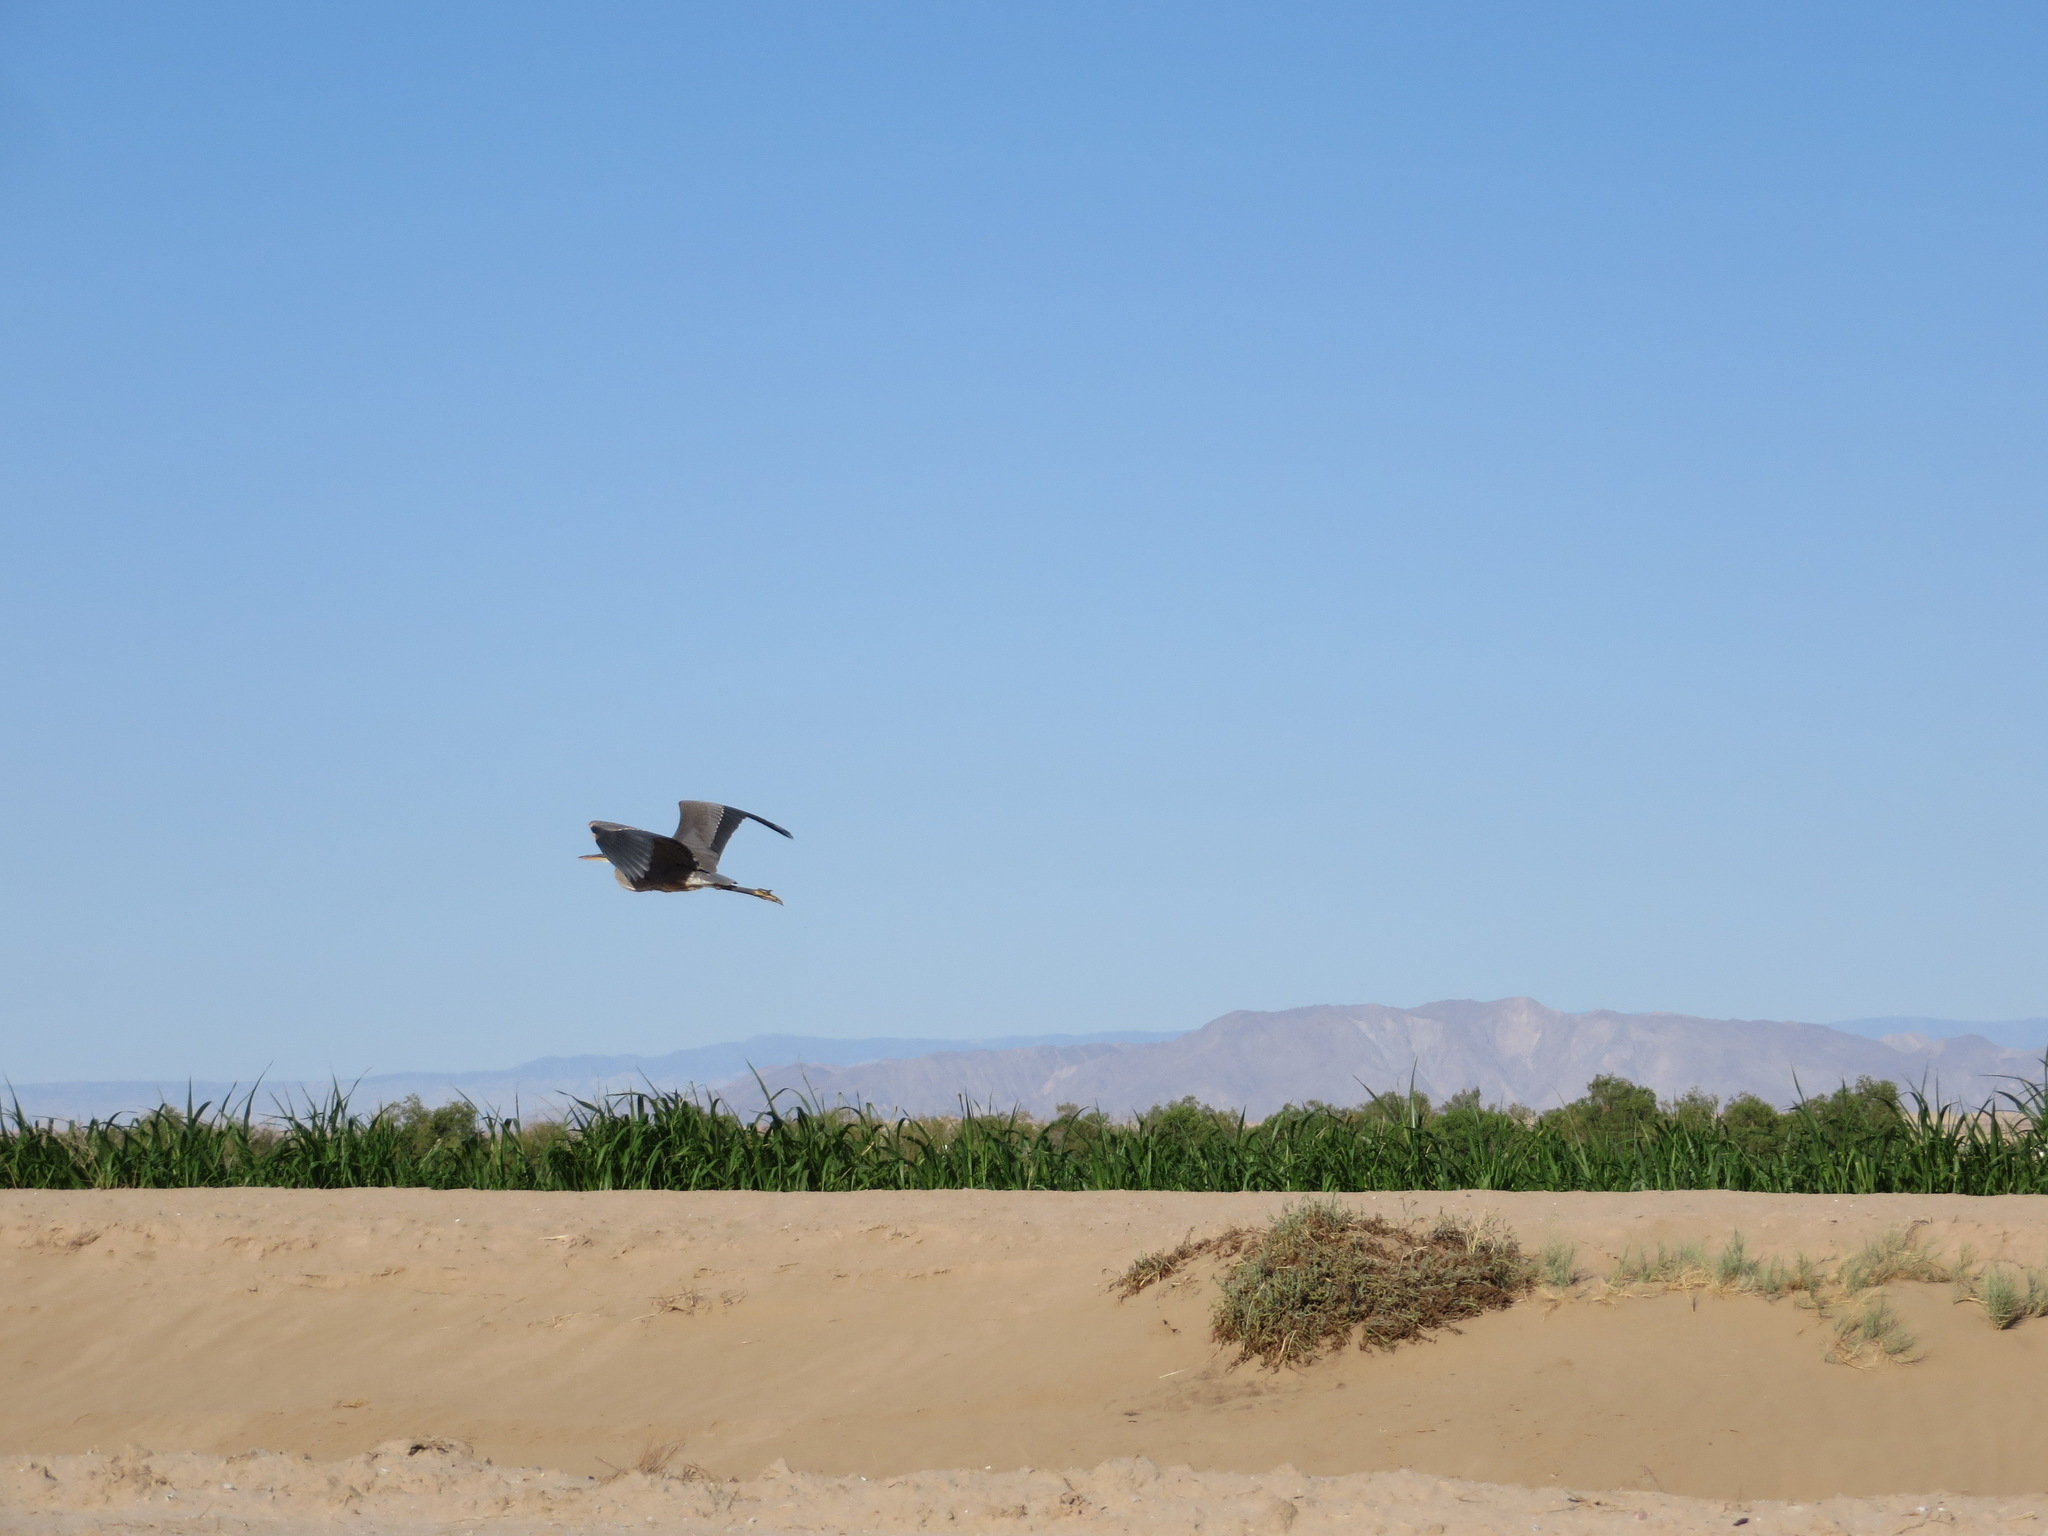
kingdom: Animalia
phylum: Chordata
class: Aves
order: Pelecaniformes
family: Ardeidae
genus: Ardea
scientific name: Ardea herodias
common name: Great blue heron
